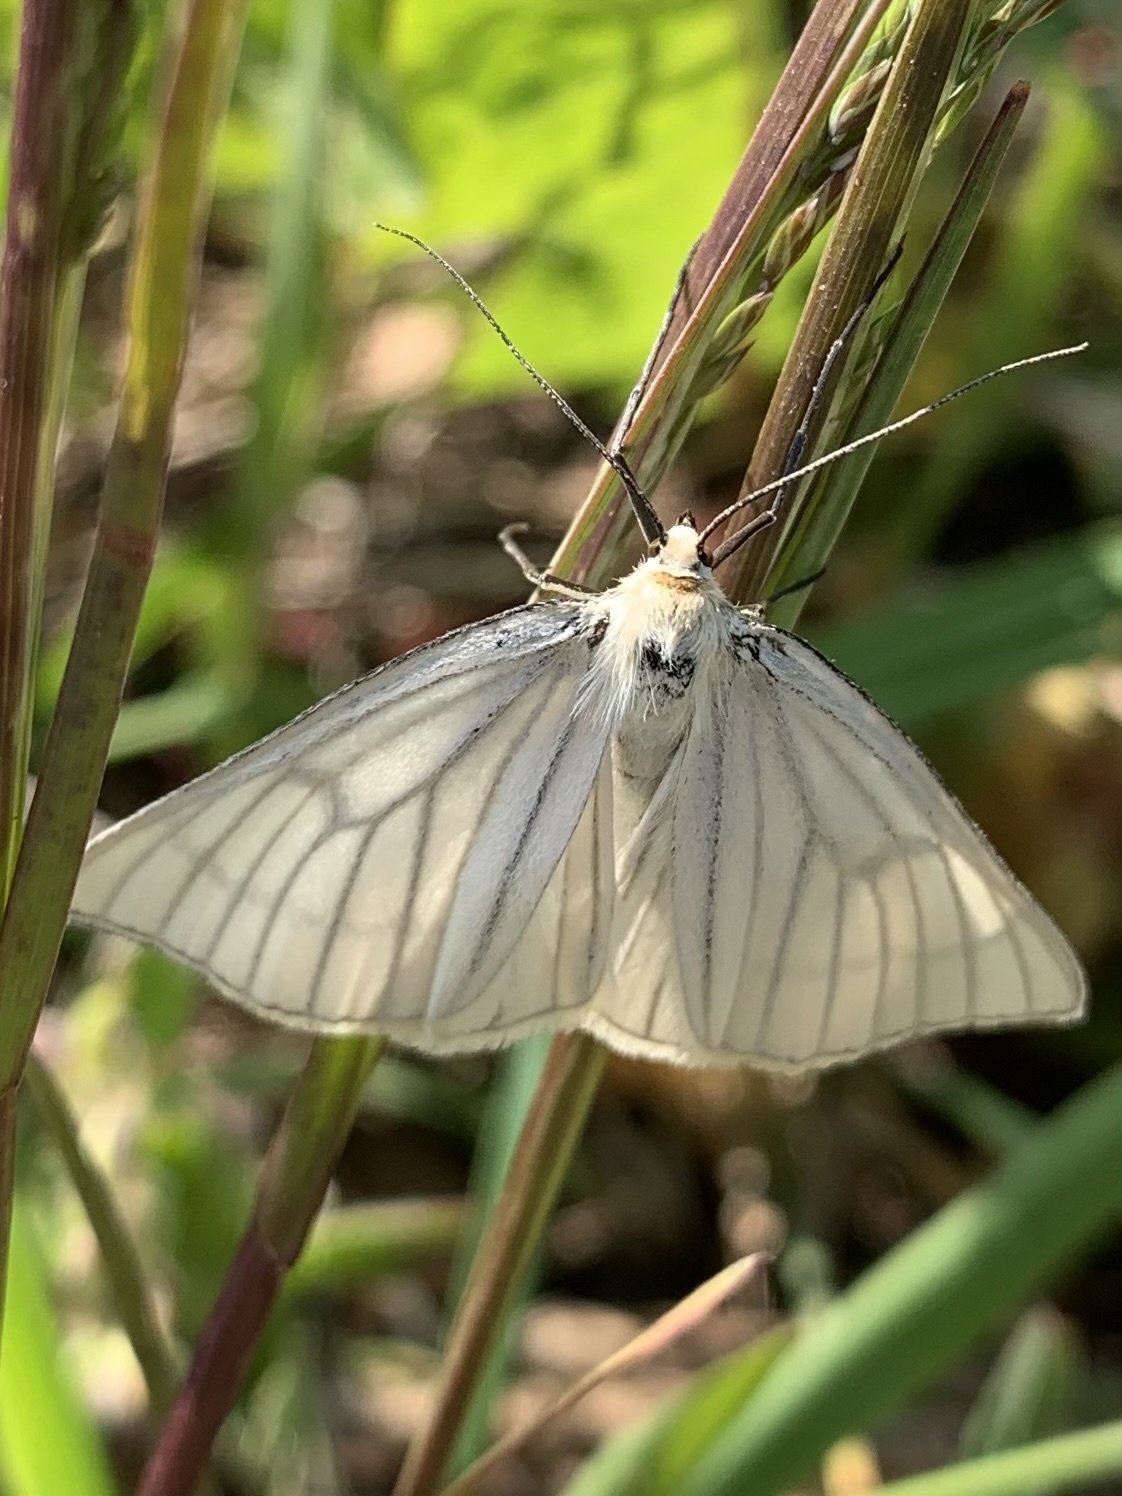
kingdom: Animalia
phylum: Arthropoda
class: Insecta
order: Lepidoptera
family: Geometridae
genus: Siona
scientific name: Siona lineata
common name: Black-veined moth
